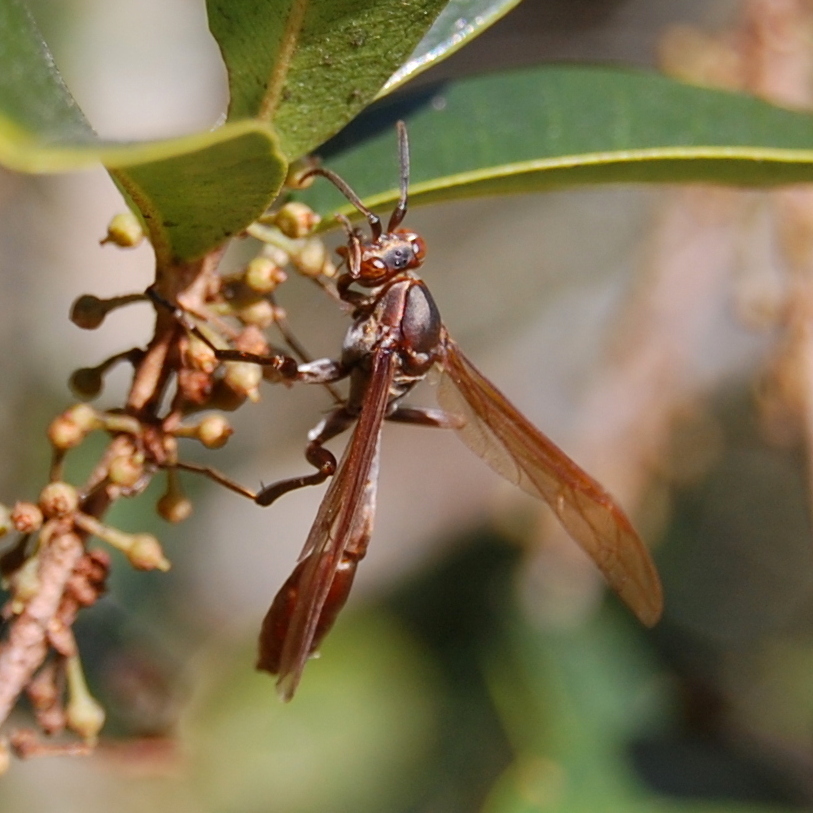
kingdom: Animalia
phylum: Arthropoda
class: Insecta
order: Hymenoptera
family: Vespidae
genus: Mischocyttarus
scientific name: Mischocyttarus drewseni
